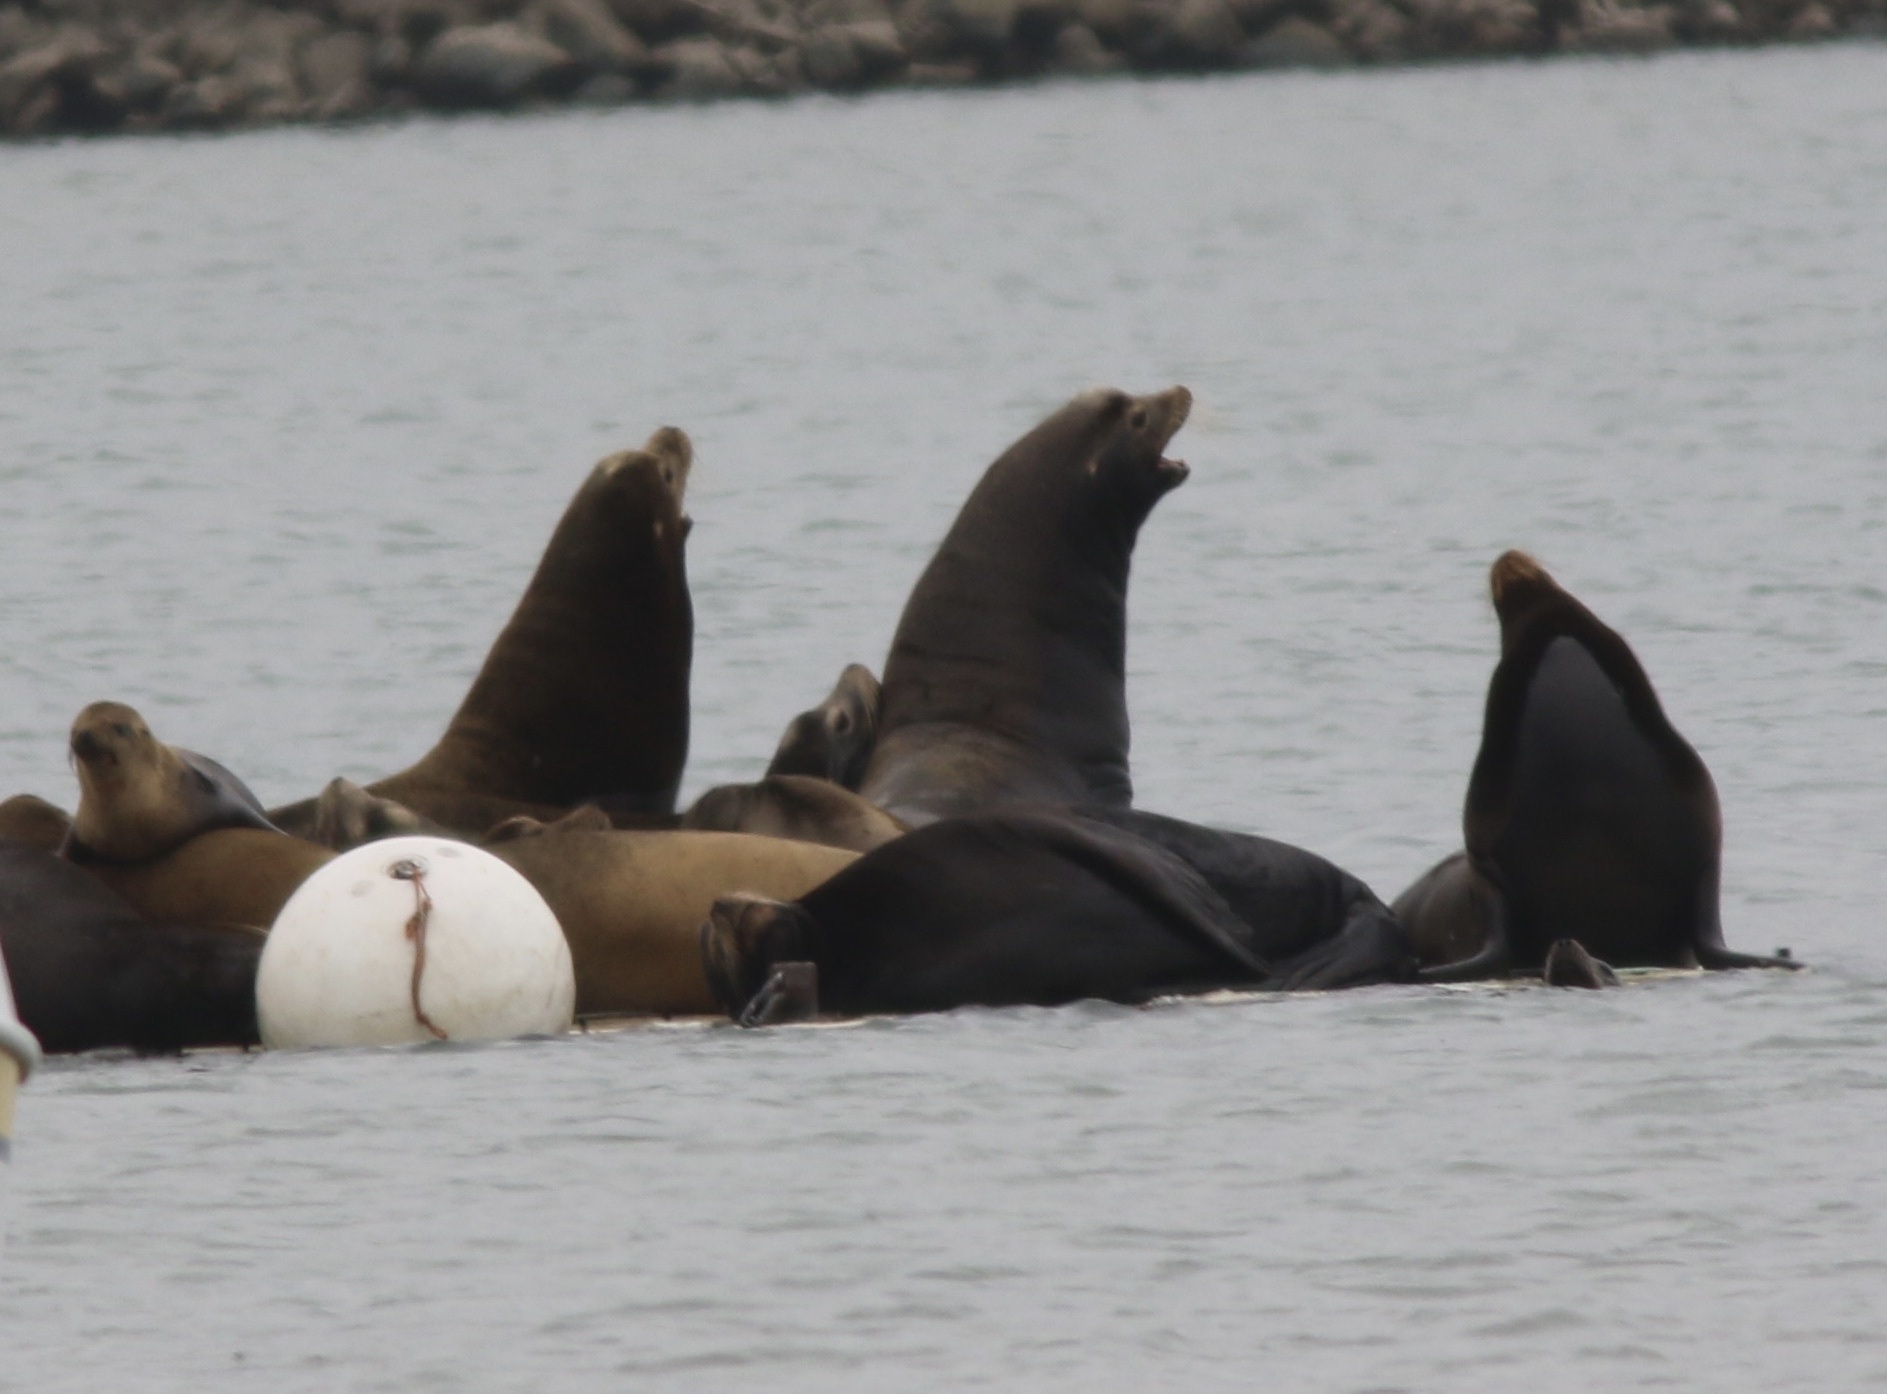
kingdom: Animalia
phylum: Chordata
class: Mammalia
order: Carnivora
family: Otariidae
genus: Zalophus
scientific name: Zalophus californianus
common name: California sea lion
